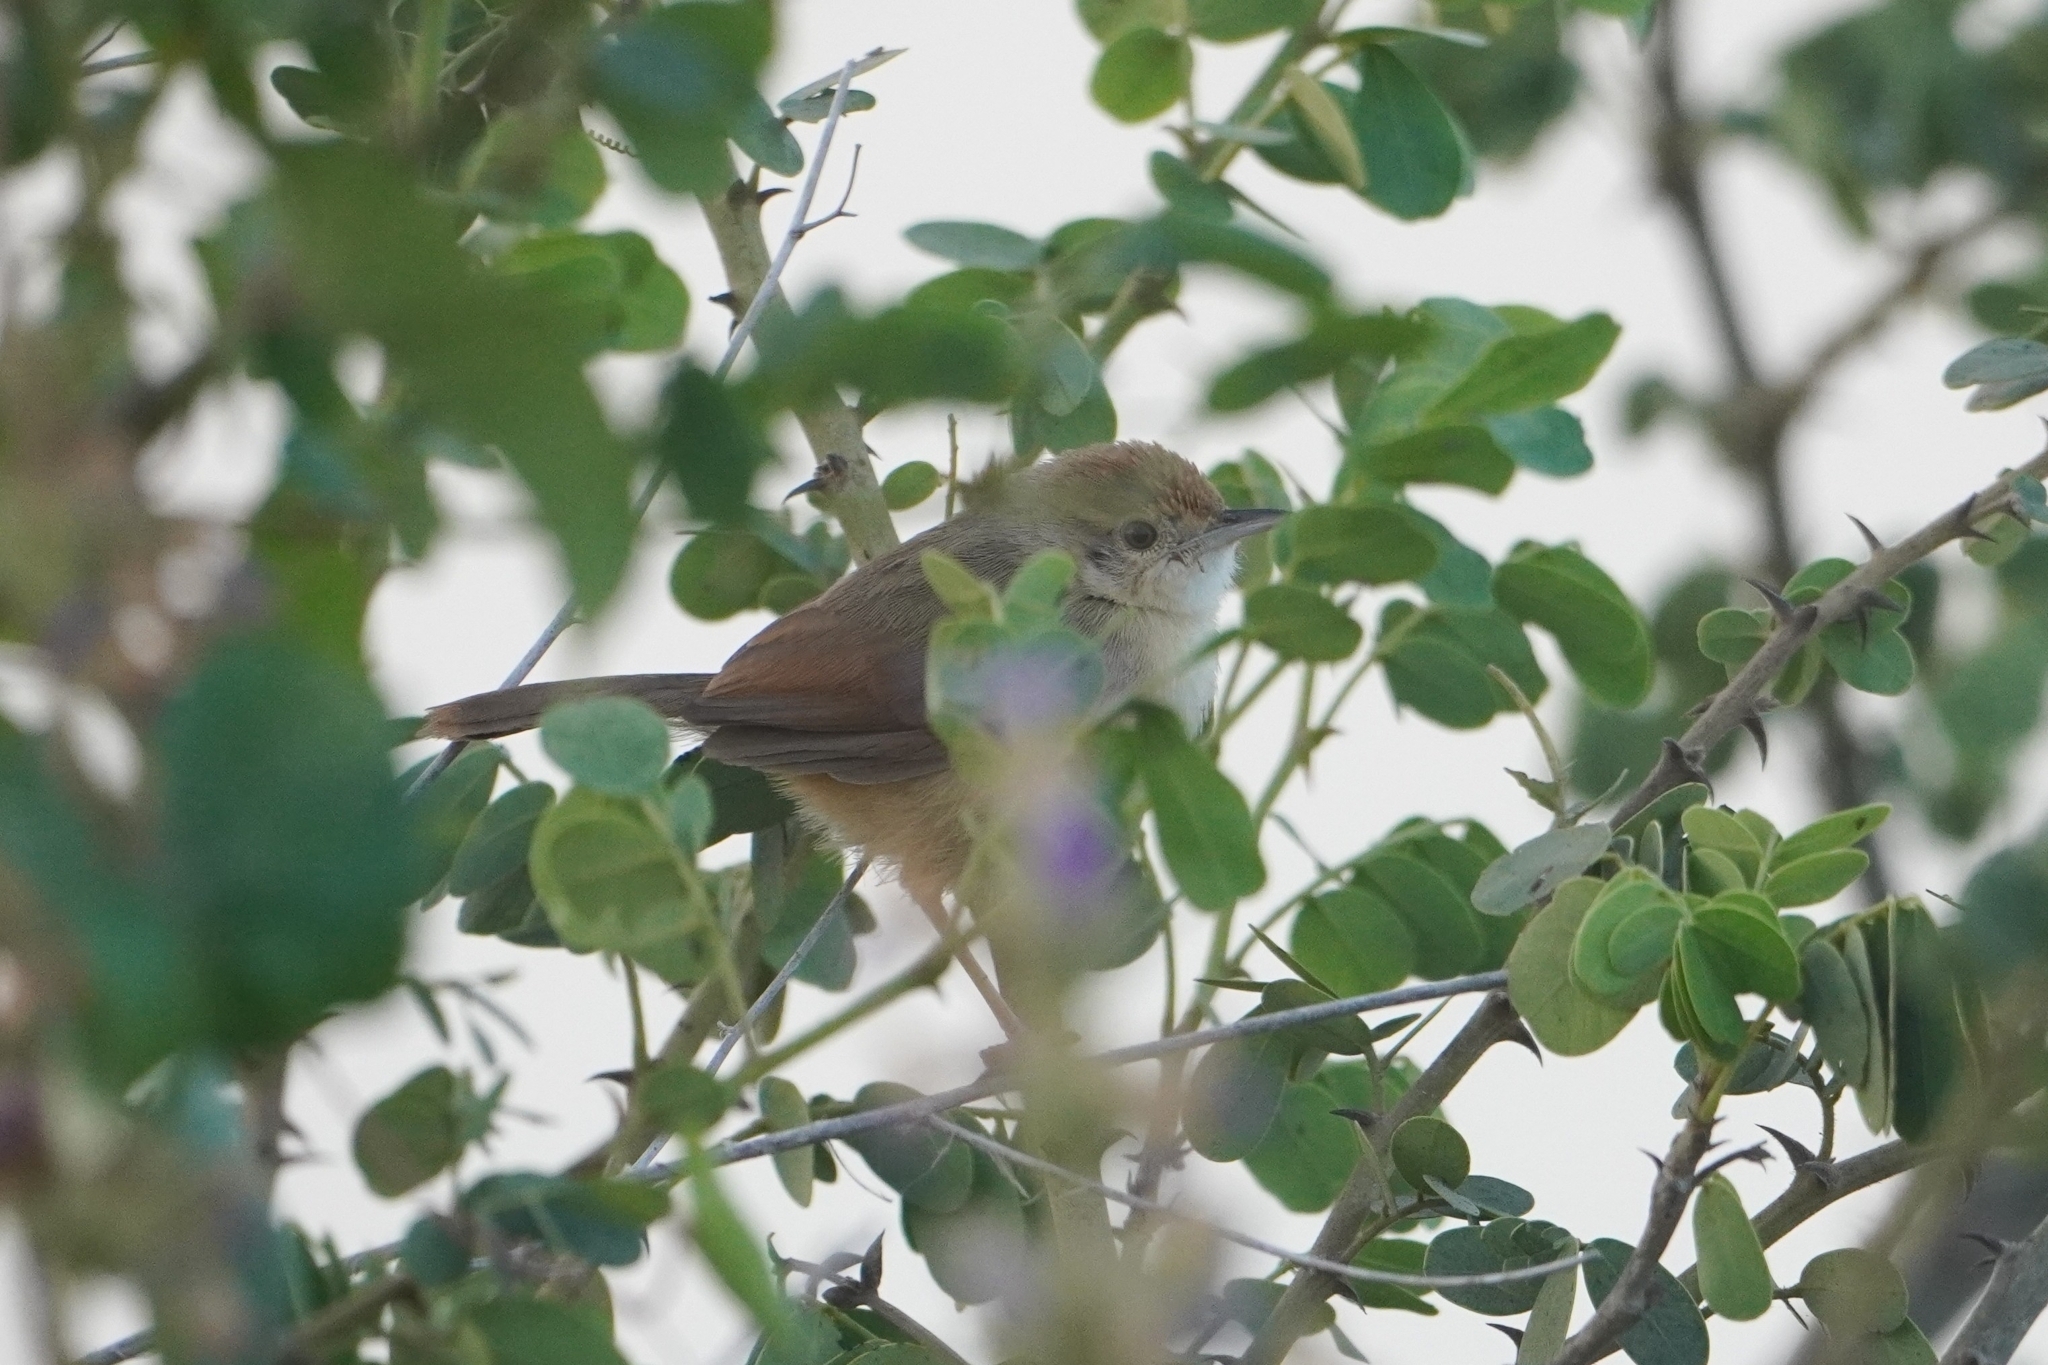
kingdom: Animalia
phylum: Chordata
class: Aves
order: Passeriformes
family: Cisticolidae
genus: Cisticola
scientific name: Cisticola erythrops
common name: Red-faced cisticola
